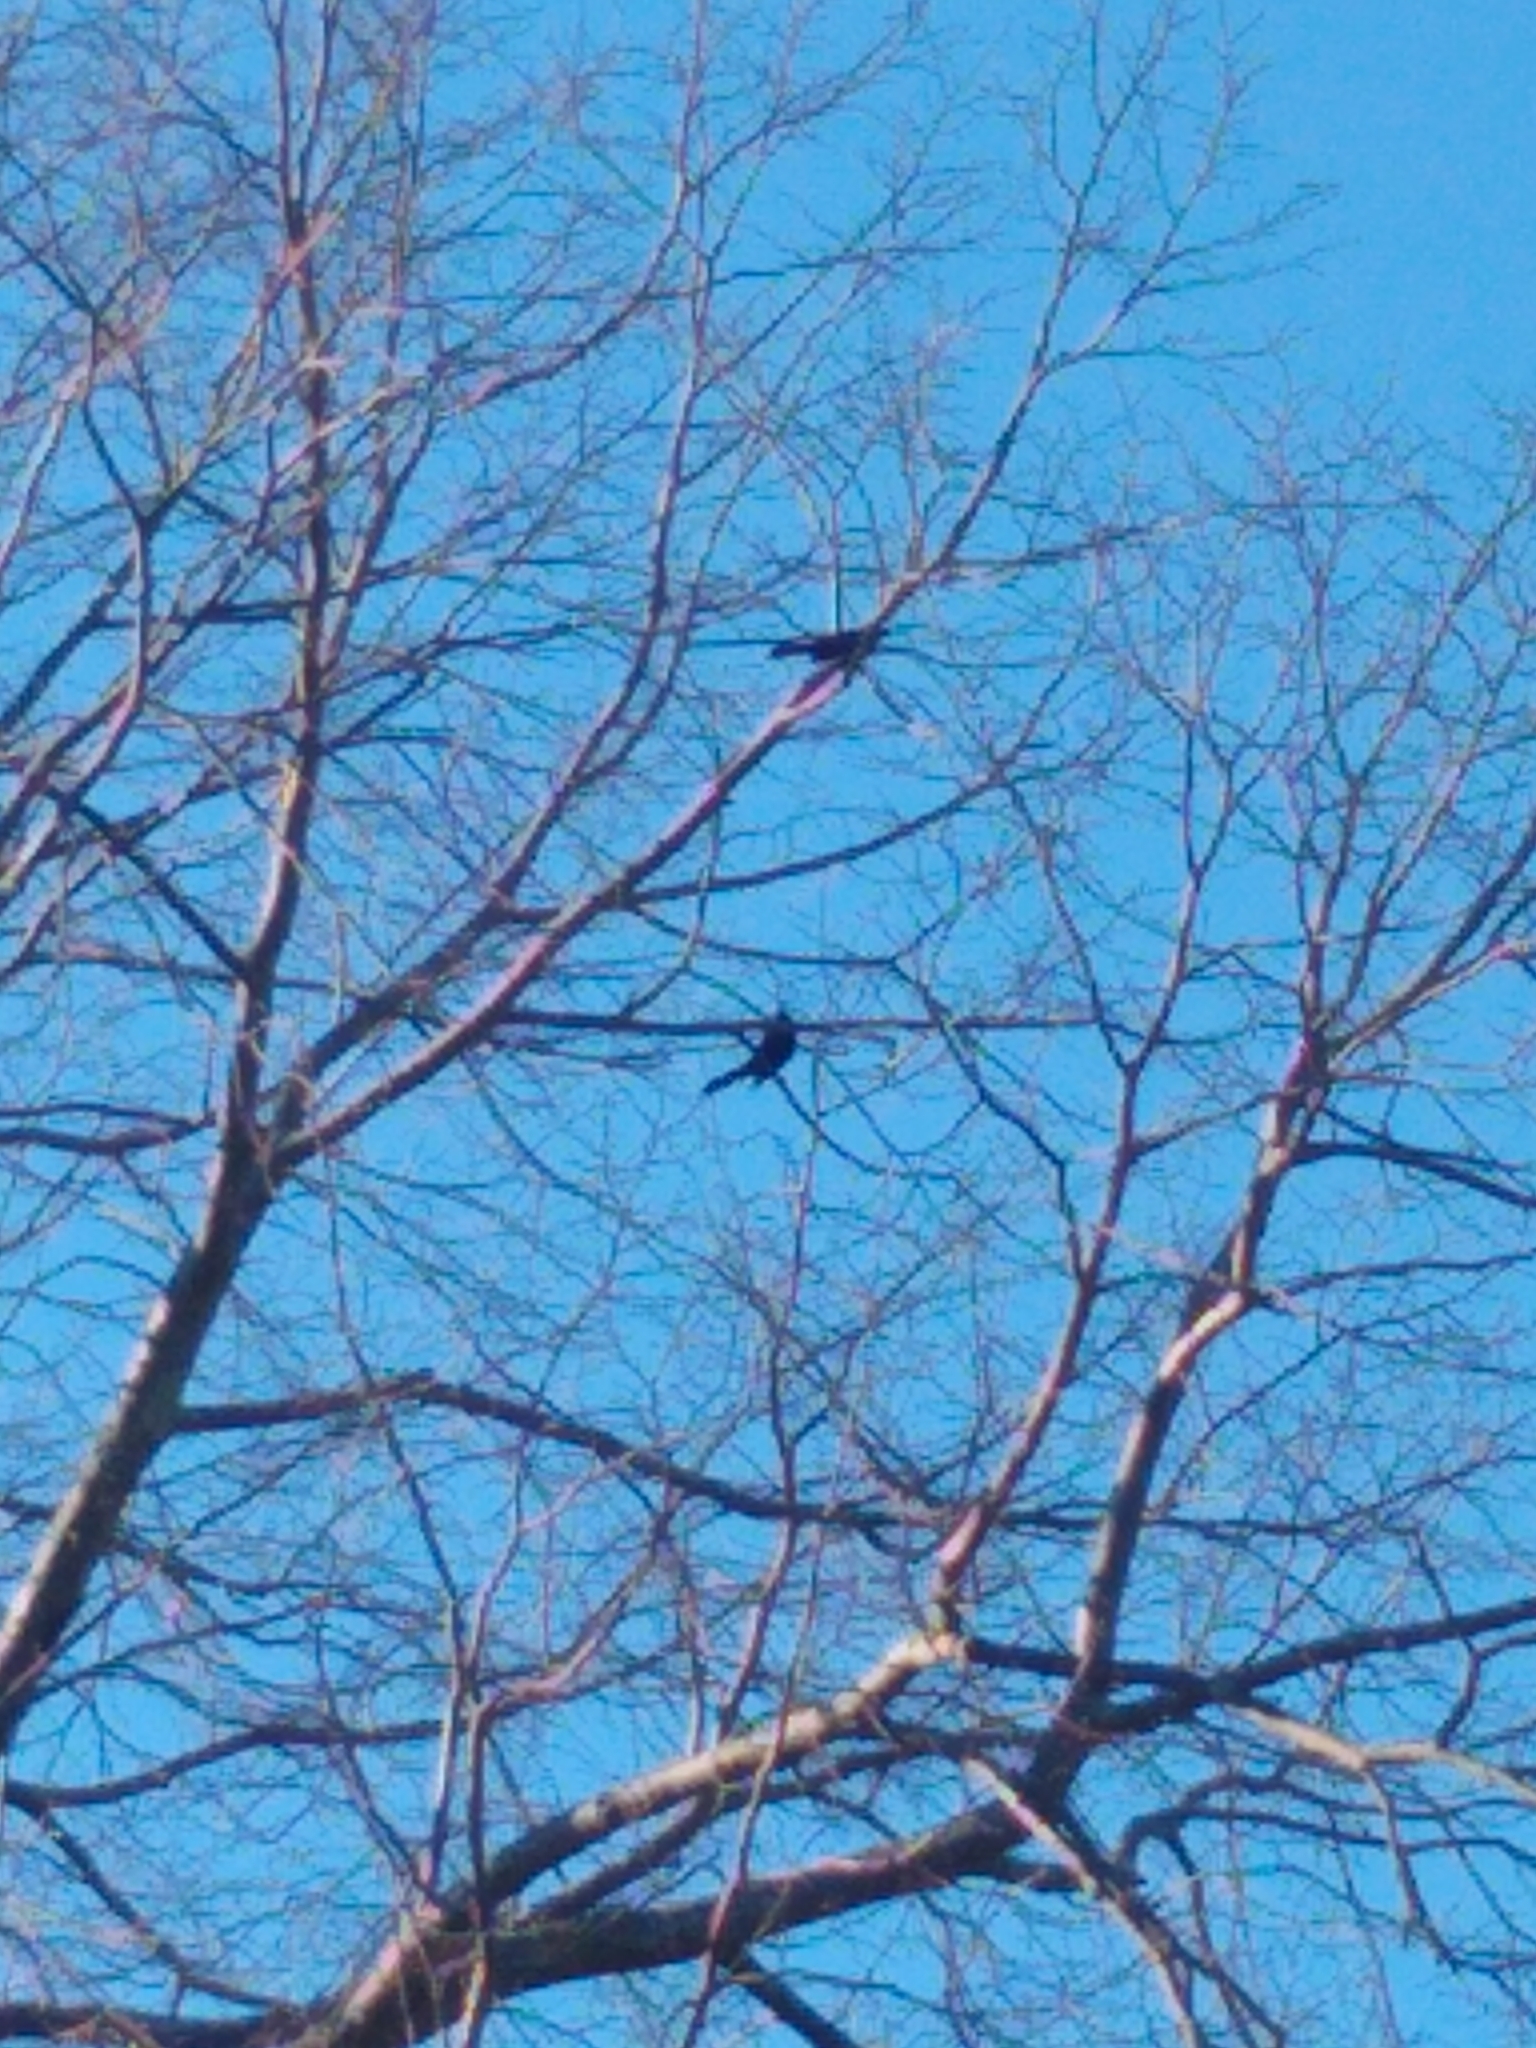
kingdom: Animalia
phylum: Chordata
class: Aves
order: Passeriformes
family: Icteridae
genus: Quiscalus
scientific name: Quiscalus quiscula
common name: Common grackle
